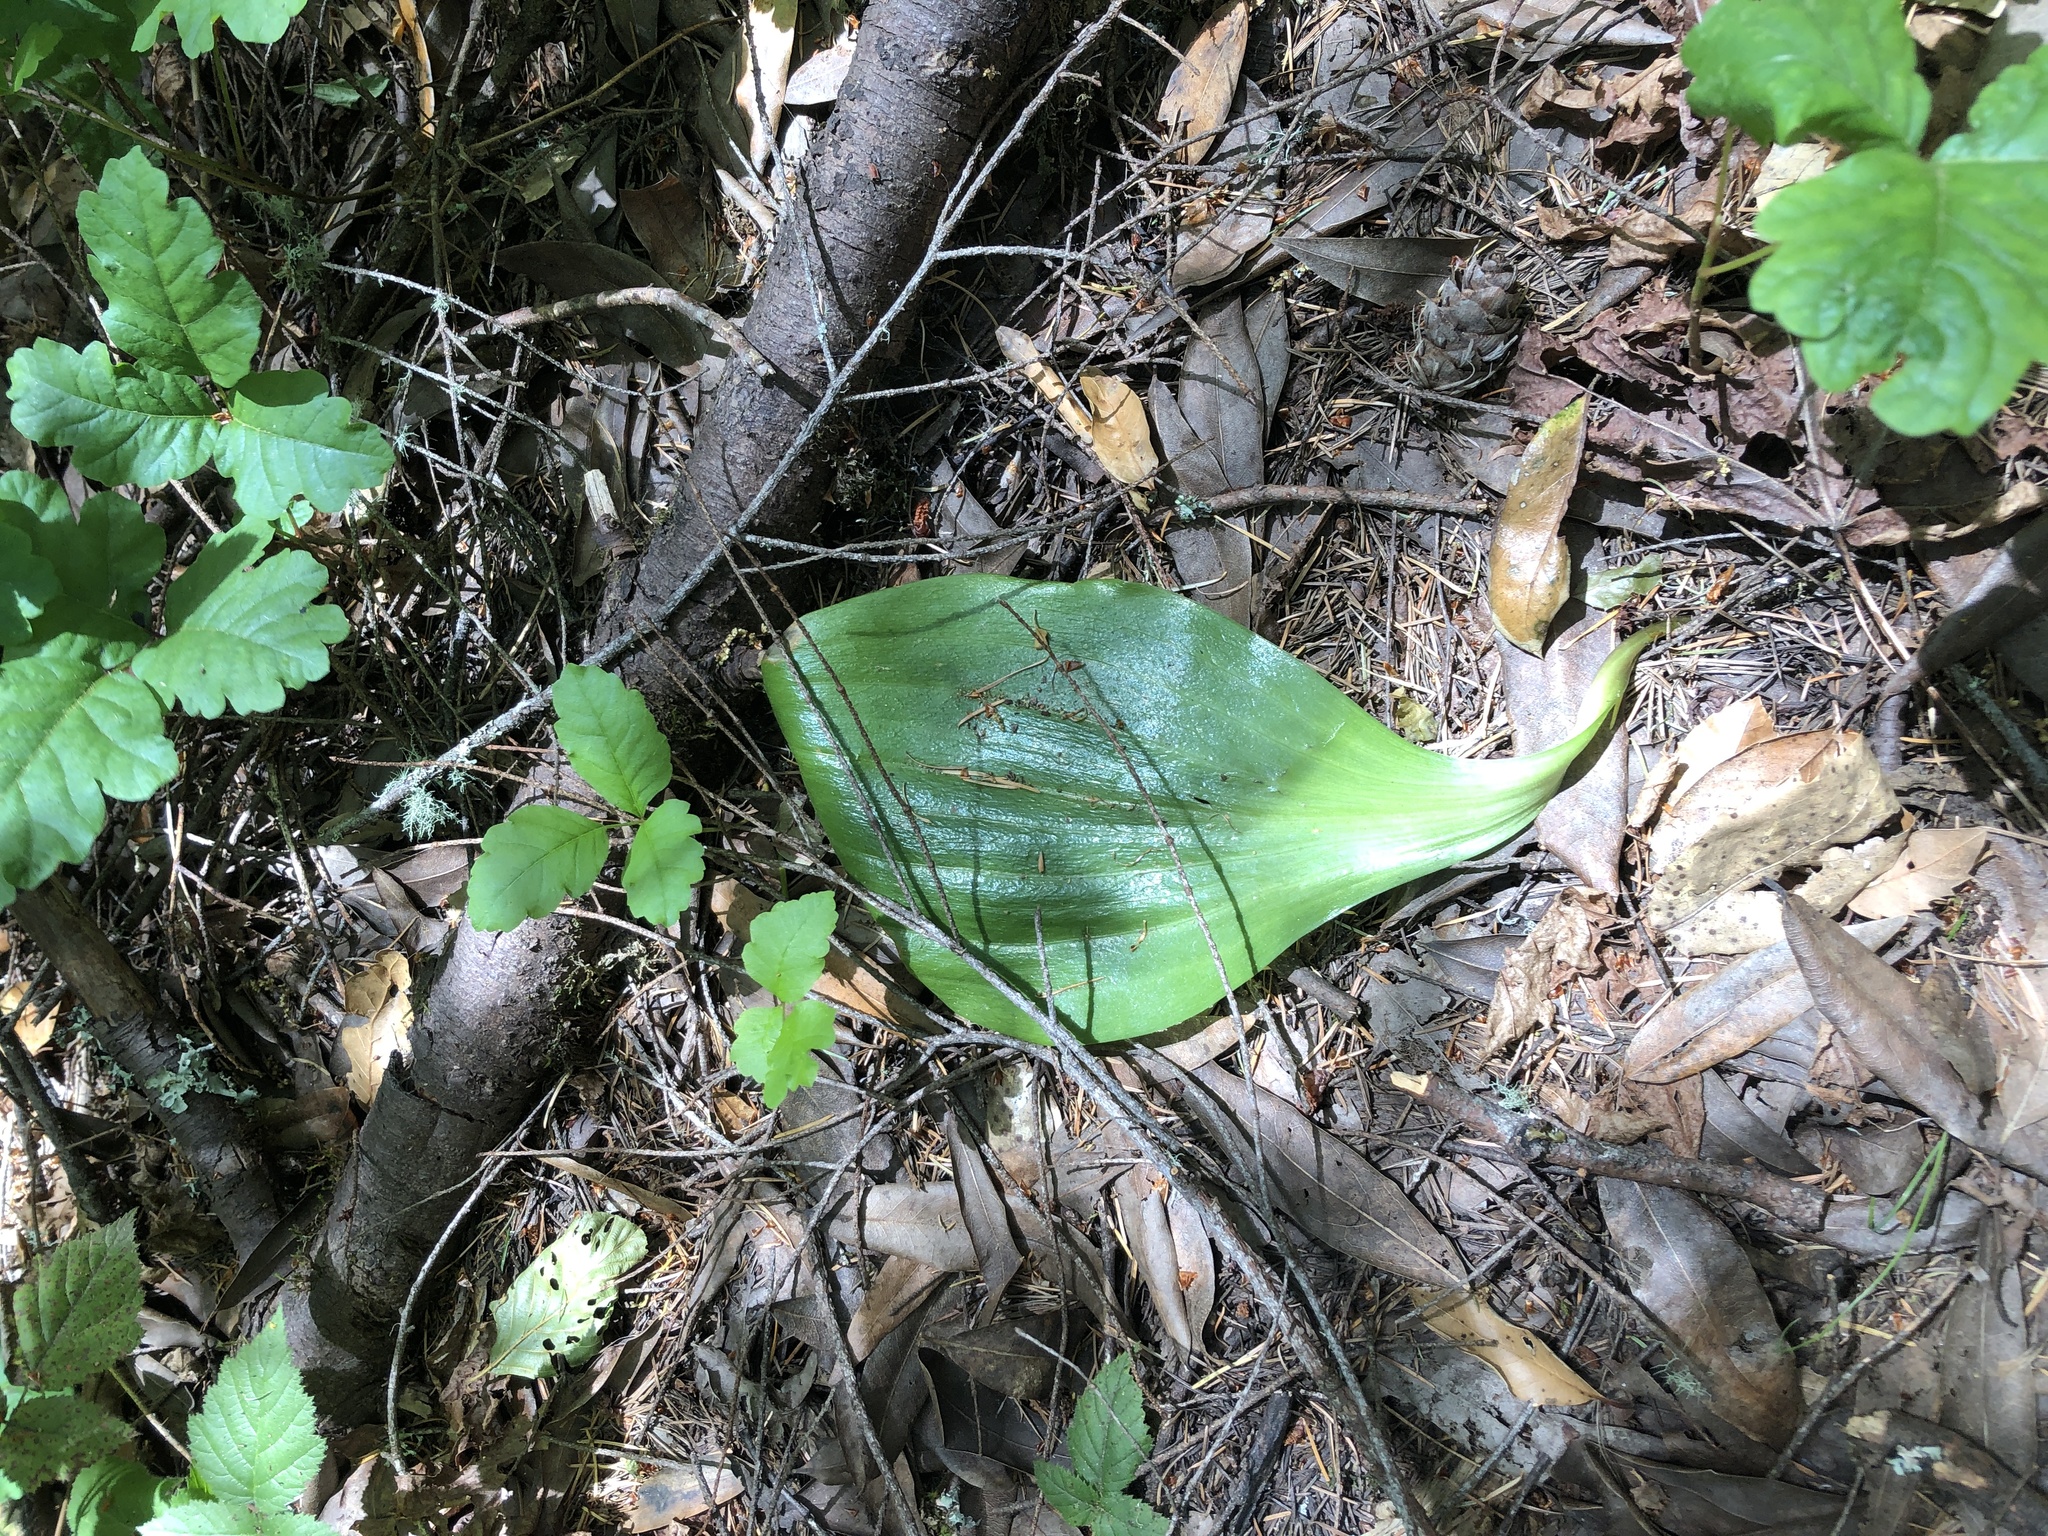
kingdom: Plantae
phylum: Tracheophyta
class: Liliopsida
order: Liliales
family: Liliaceae
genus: Fritillaria
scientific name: Fritillaria affinis
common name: Ojai fritillary
